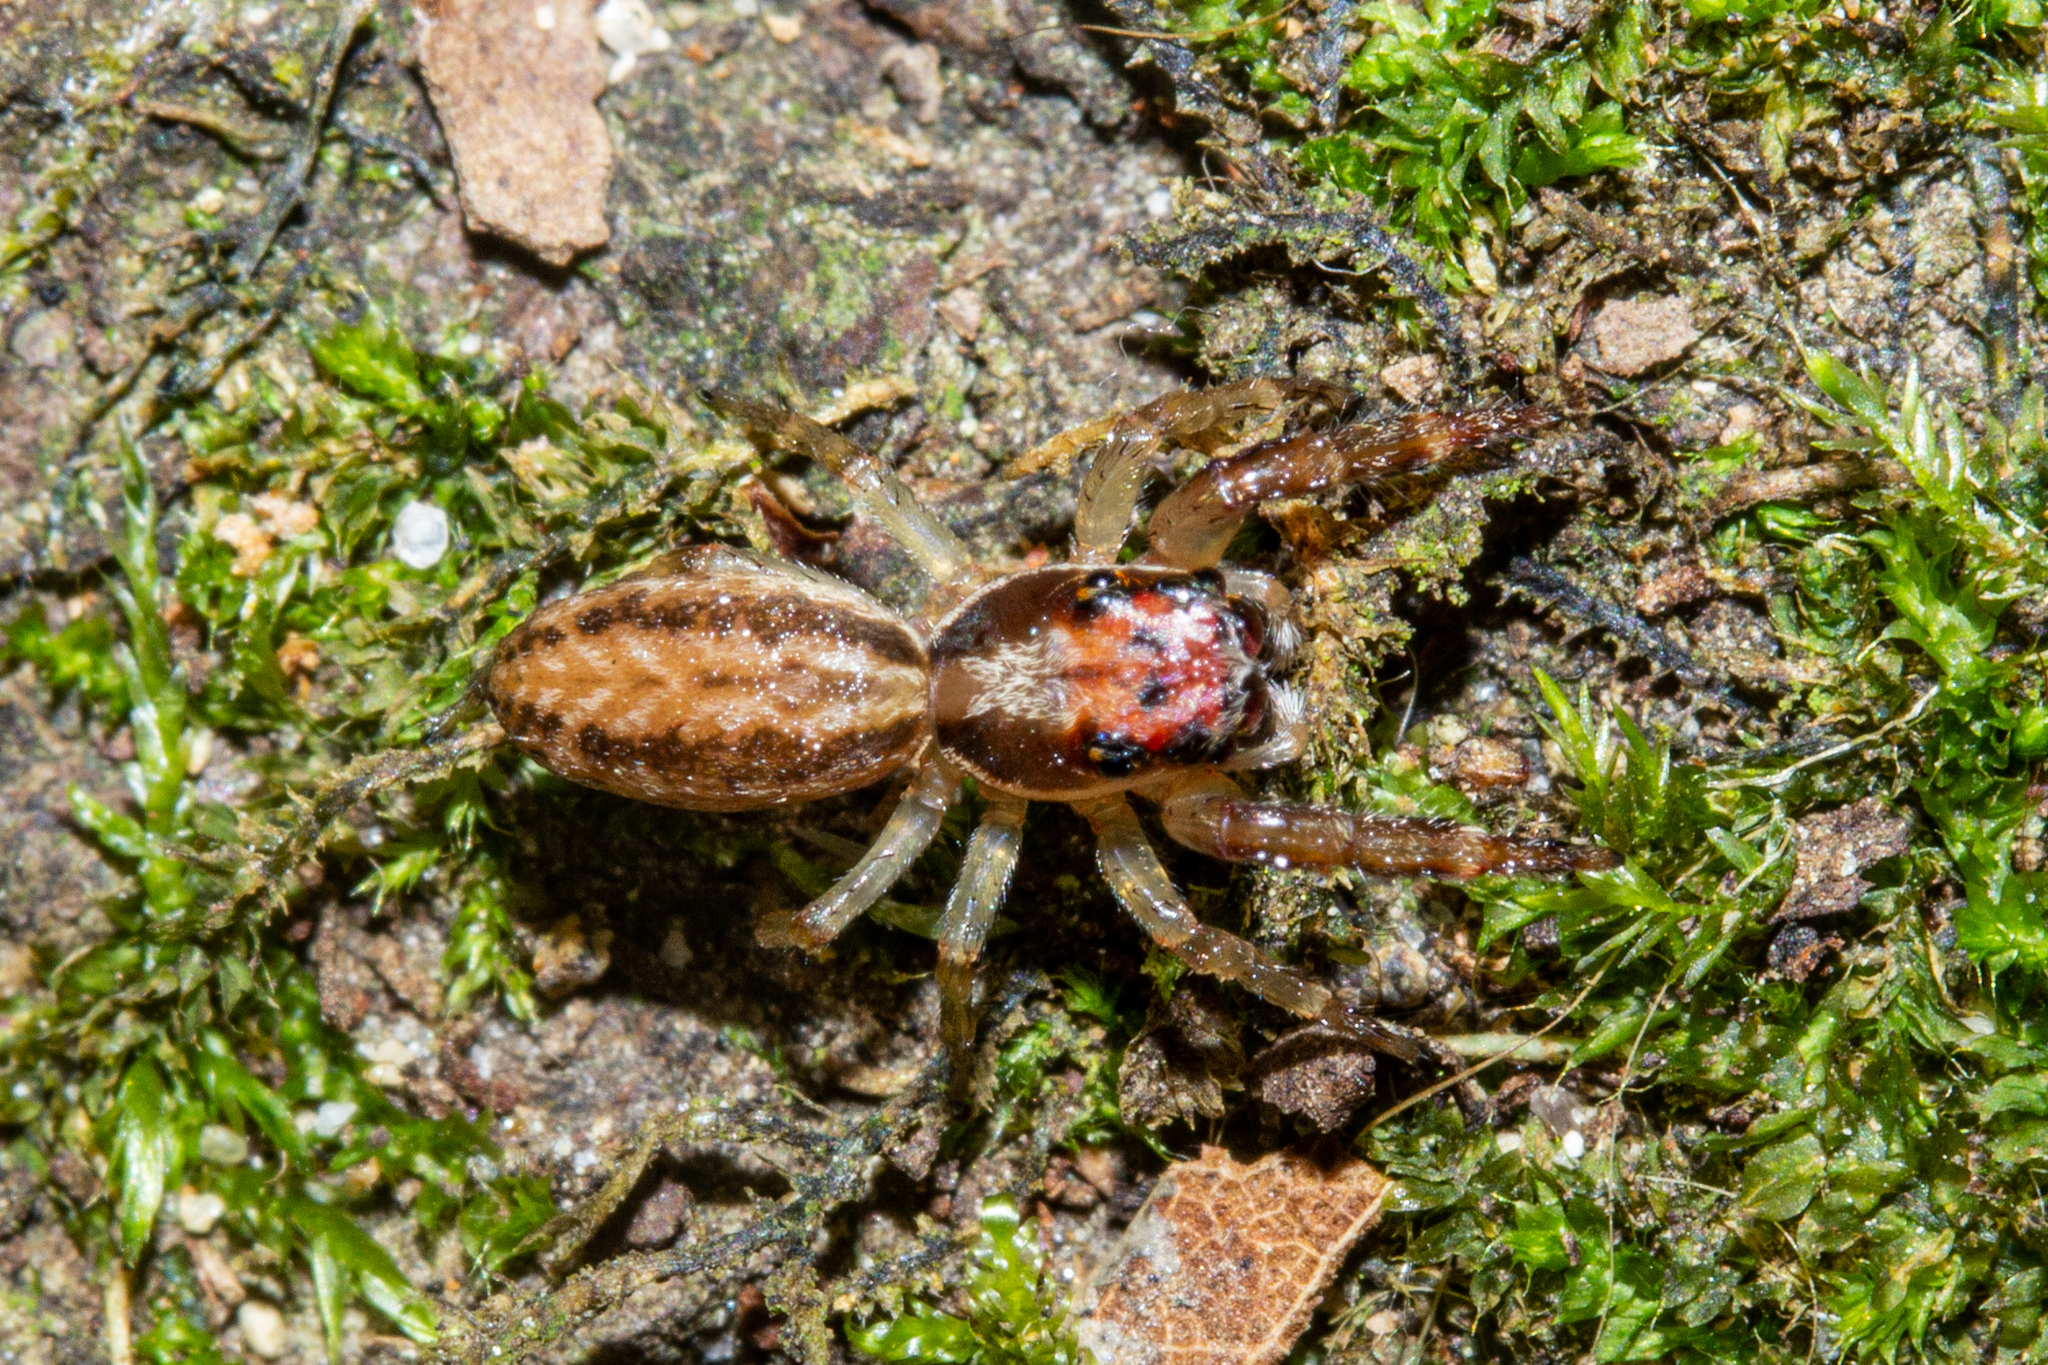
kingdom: Animalia
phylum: Arthropoda
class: Arachnida
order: Araneae
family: Salticidae
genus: Trite
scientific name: Trite mustilina
